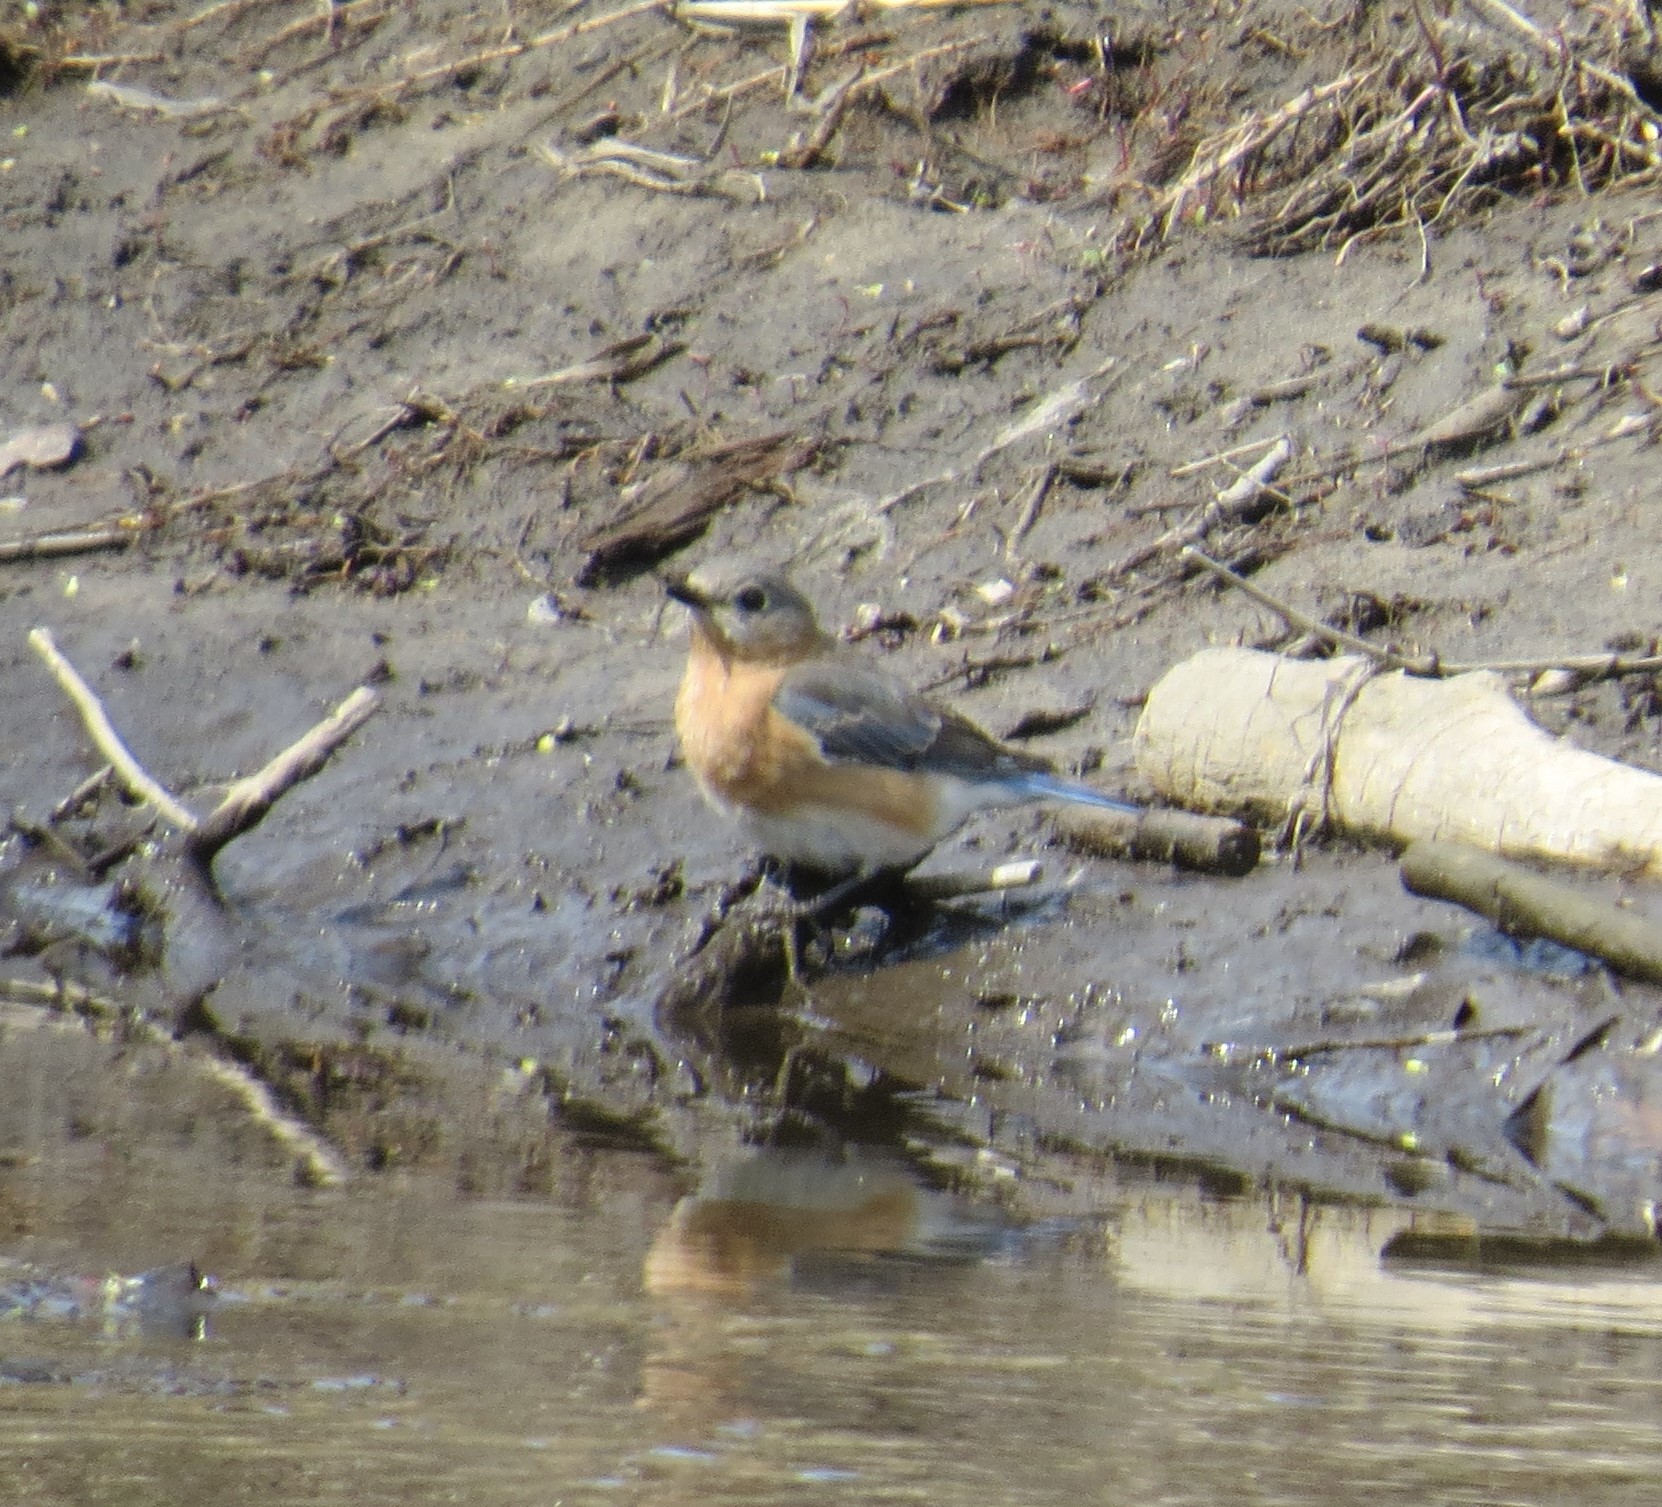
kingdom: Animalia
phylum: Chordata
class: Aves
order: Passeriformes
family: Turdidae
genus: Sialia
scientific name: Sialia sialis
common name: Eastern bluebird
